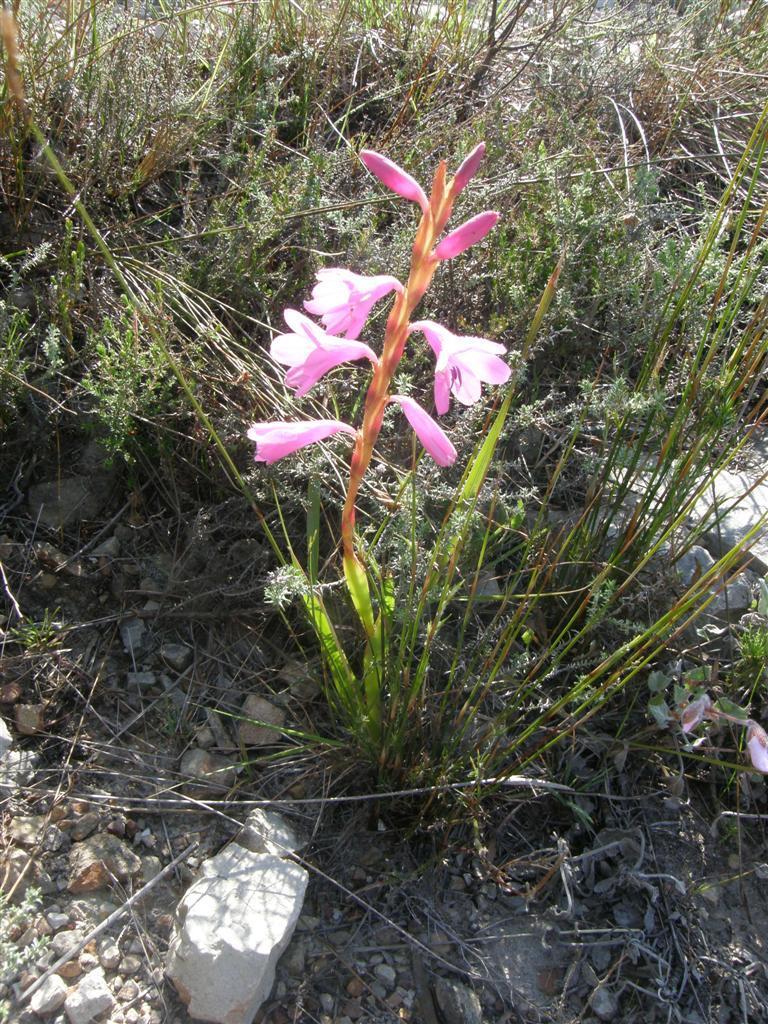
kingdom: Plantae
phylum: Tracheophyta
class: Liliopsida
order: Asparagales
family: Iridaceae
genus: Watsonia
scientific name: Watsonia laccata
